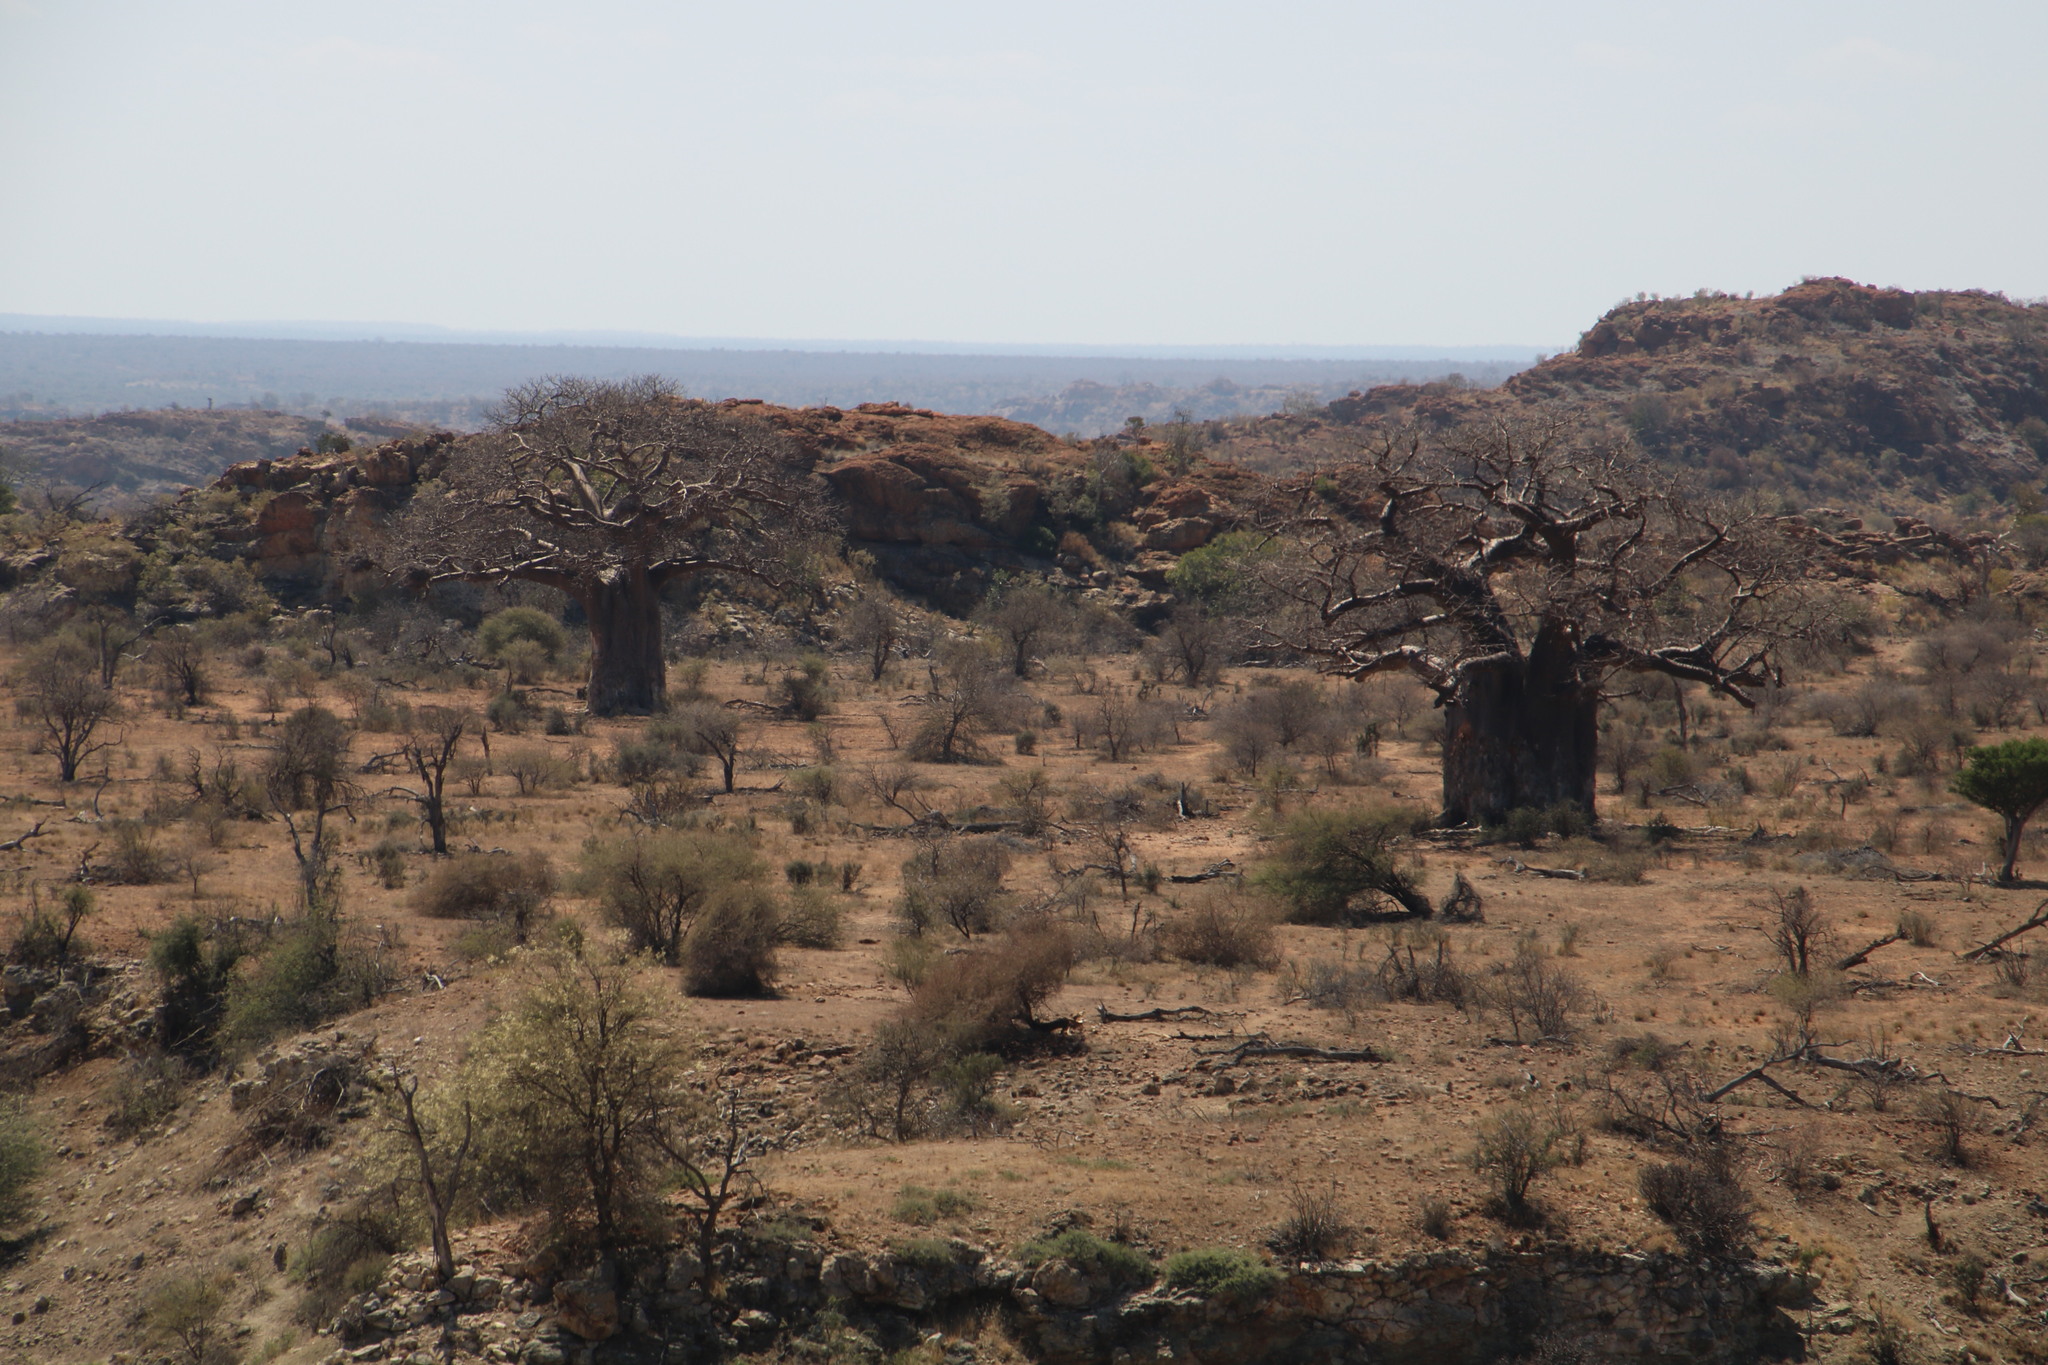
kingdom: Plantae
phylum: Tracheophyta
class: Magnoliopsida
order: Malvales
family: Malvaceae
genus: Adansonia
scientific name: Adansonia digitata
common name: Dead-rat-tree
